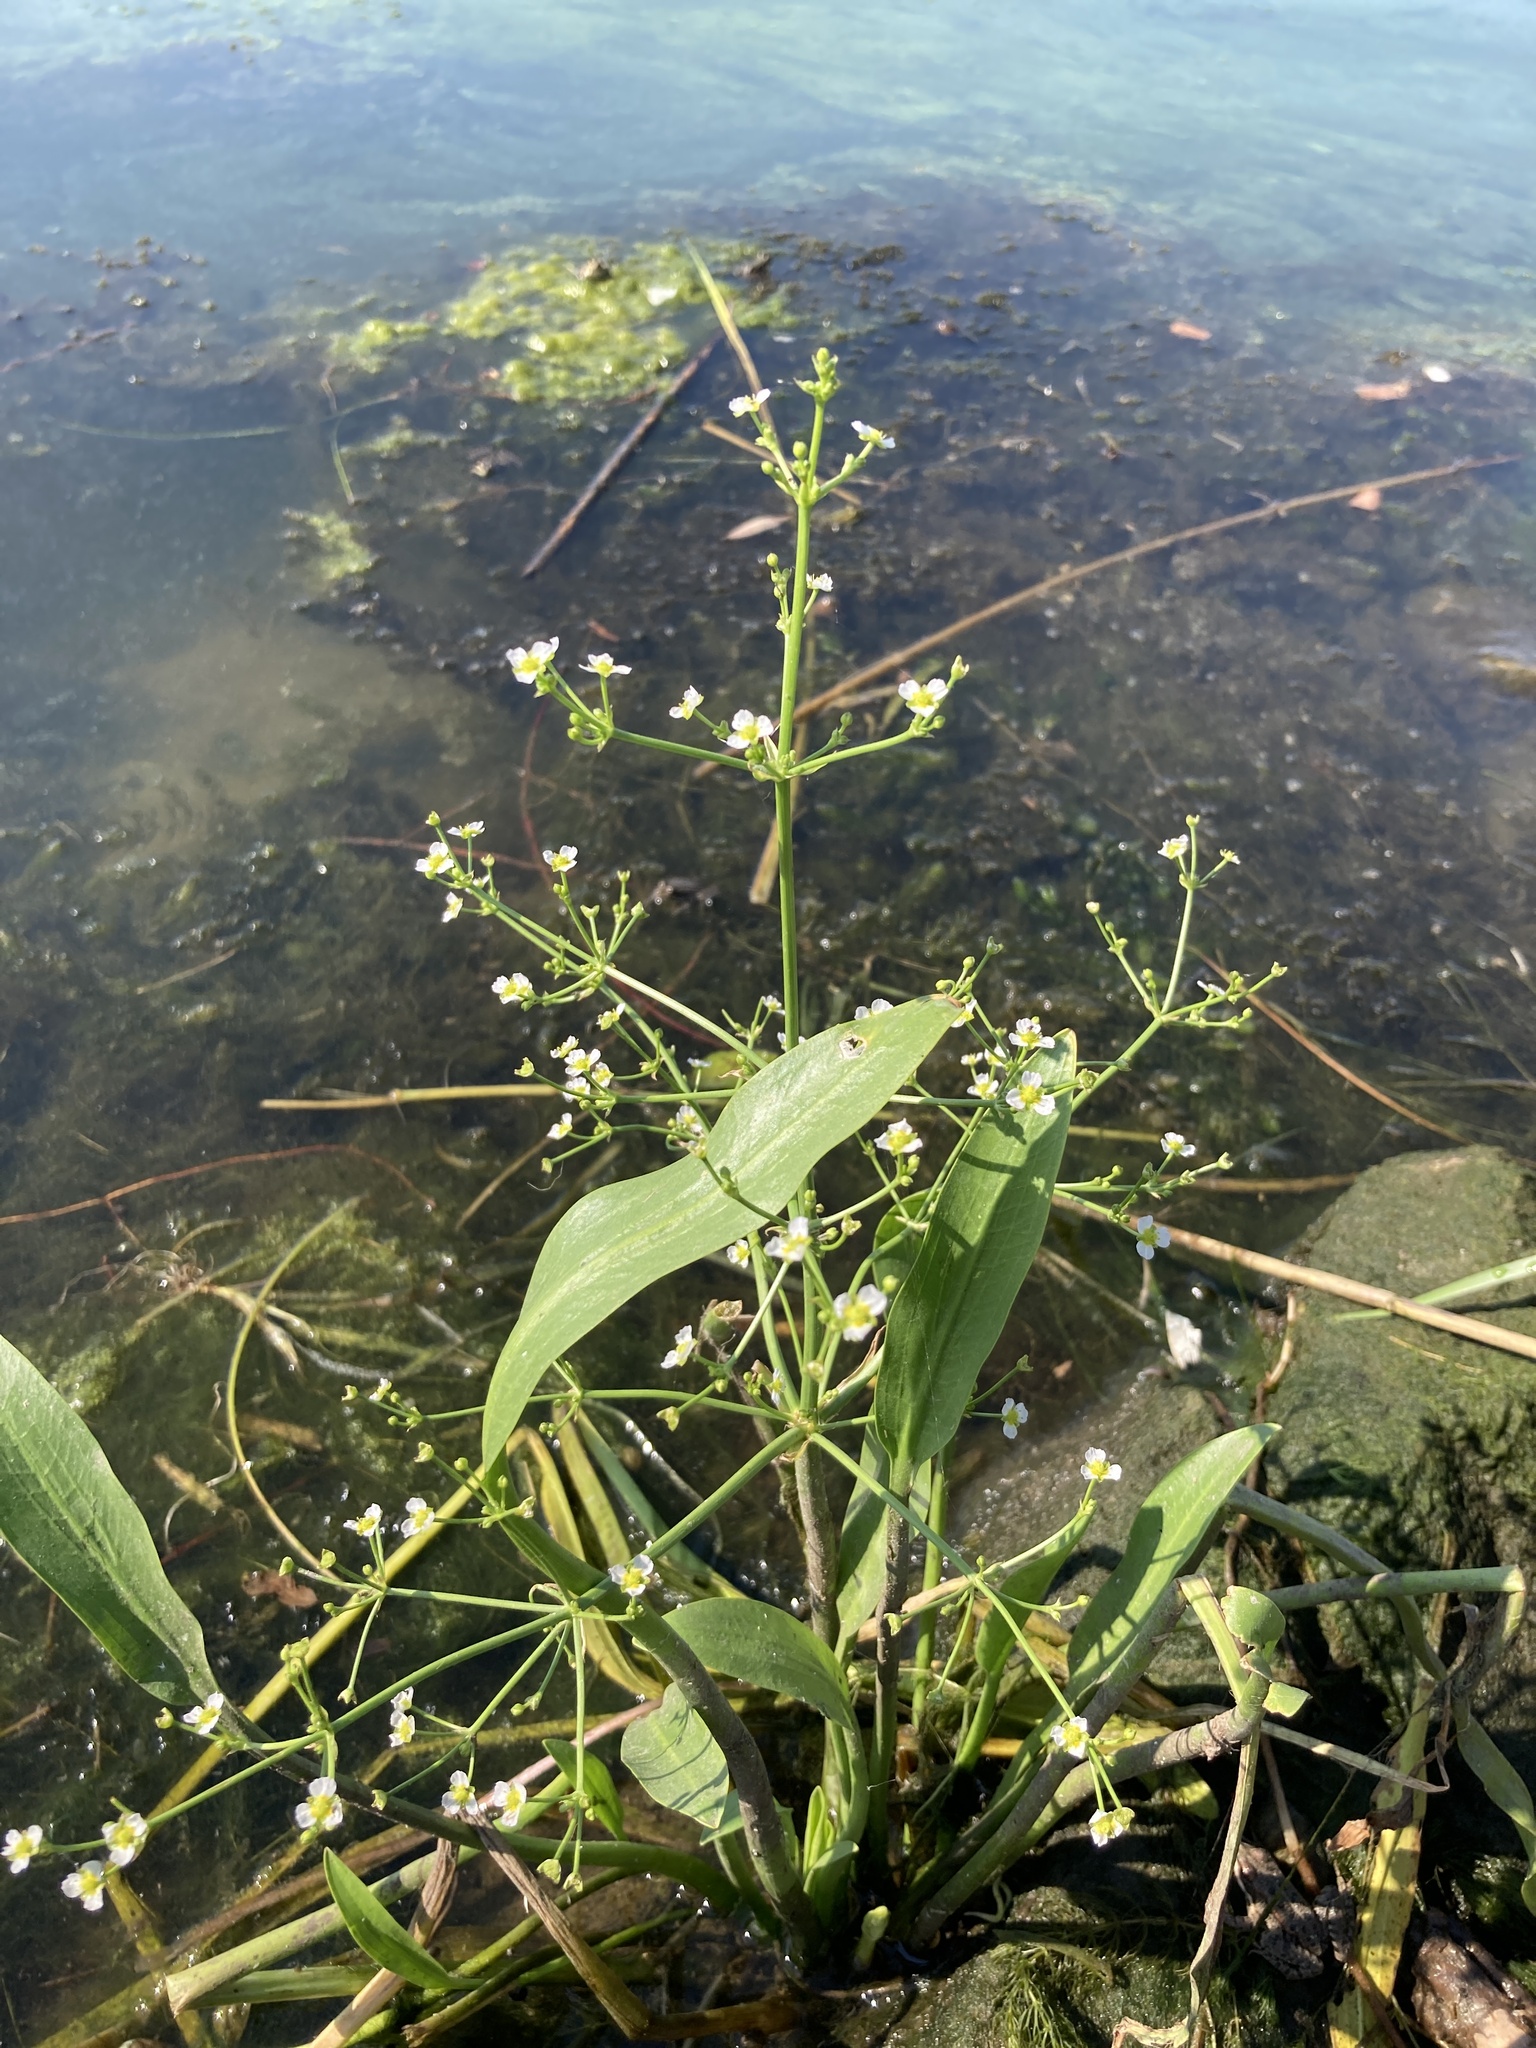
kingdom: Plantae
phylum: Tracheophyta
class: Liliopsida
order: Alismatales
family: Alismataceae
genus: Alisma
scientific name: Alisma plantago-aquatica
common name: Water-plantain
